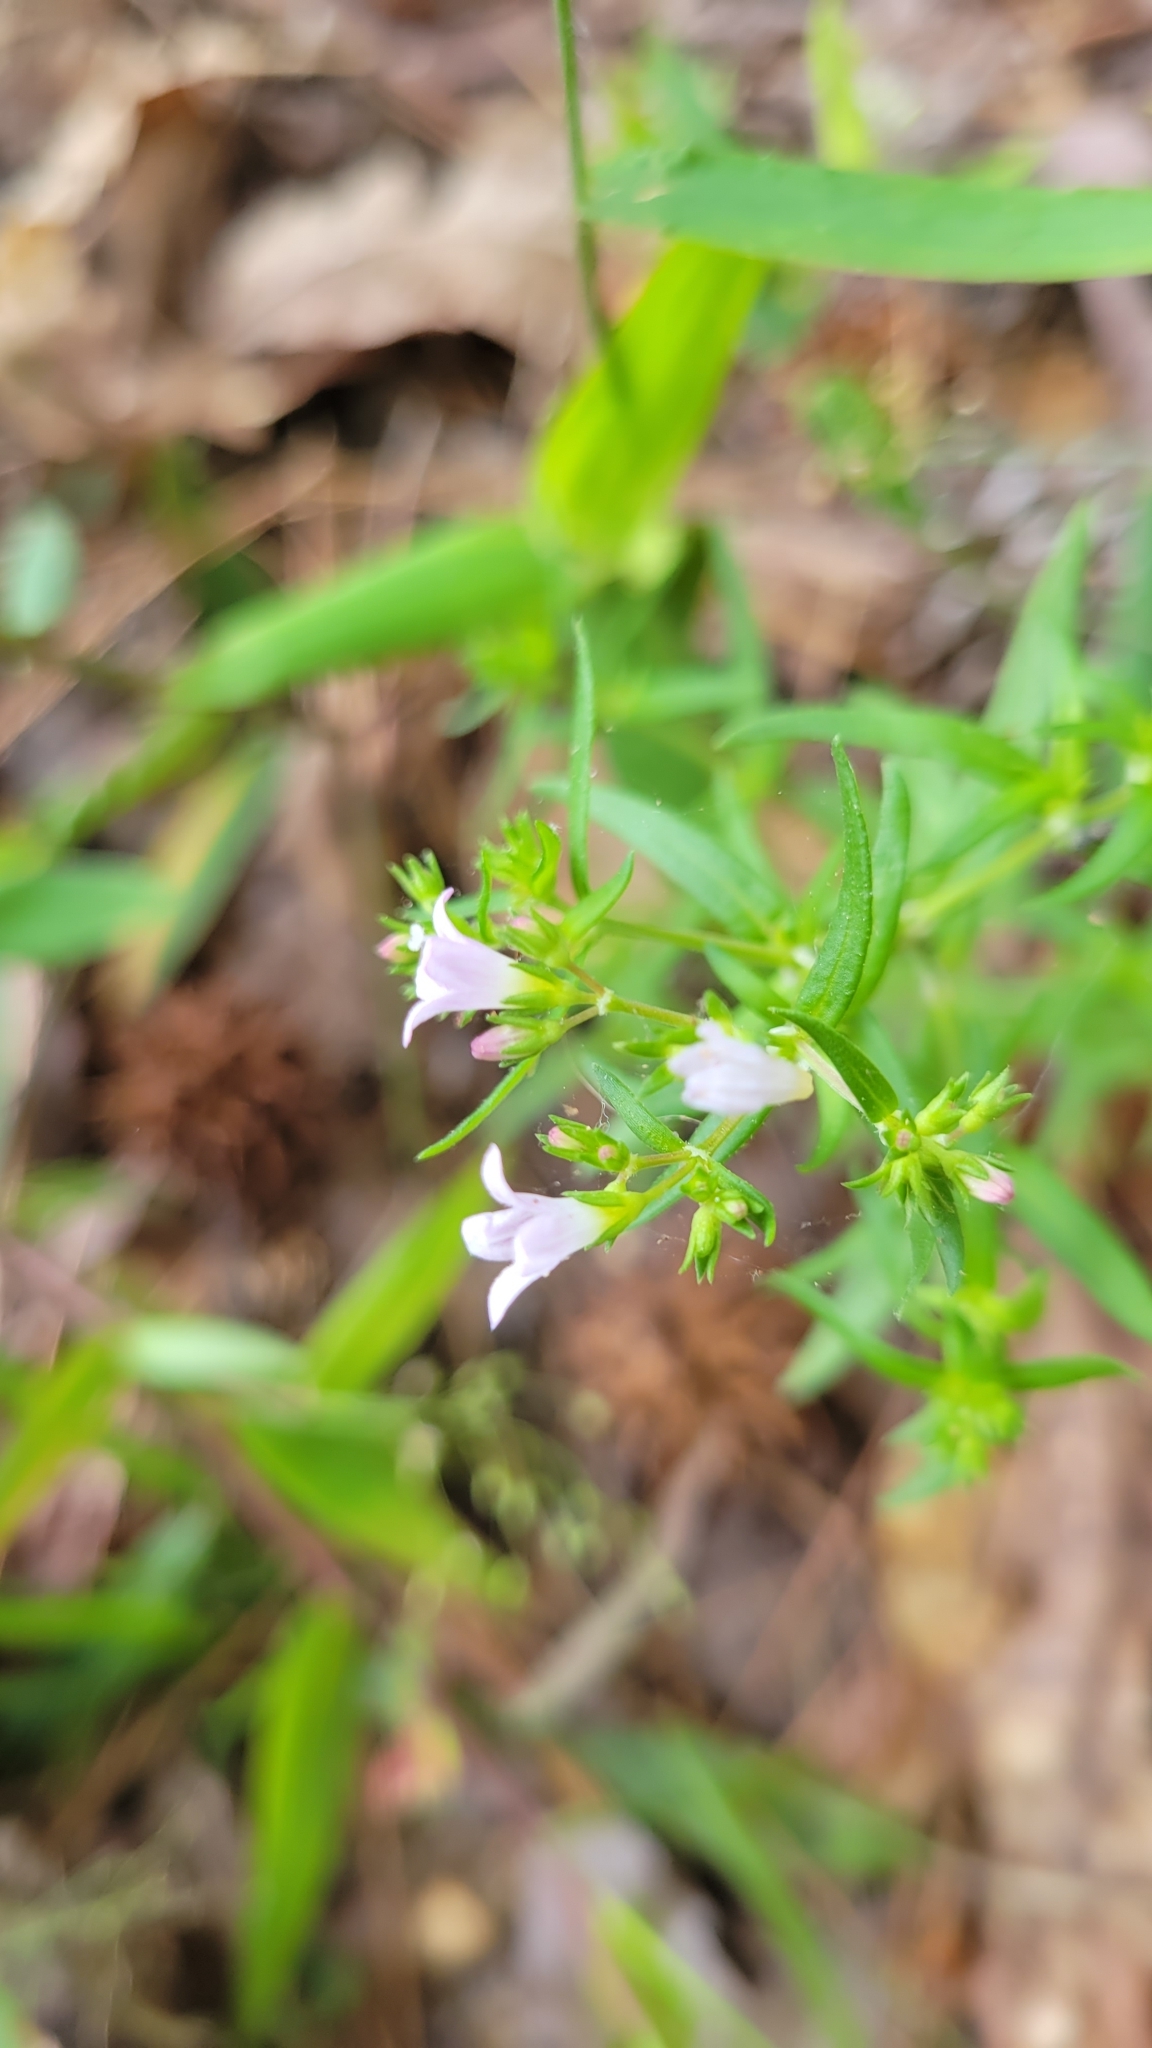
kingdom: Plantae
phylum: Tracheophyta
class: Magnoliopsida
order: Gentianales
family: Rubiaceae
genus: Houstonia
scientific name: Houstonia longifolia
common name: Long-leaved bluets
